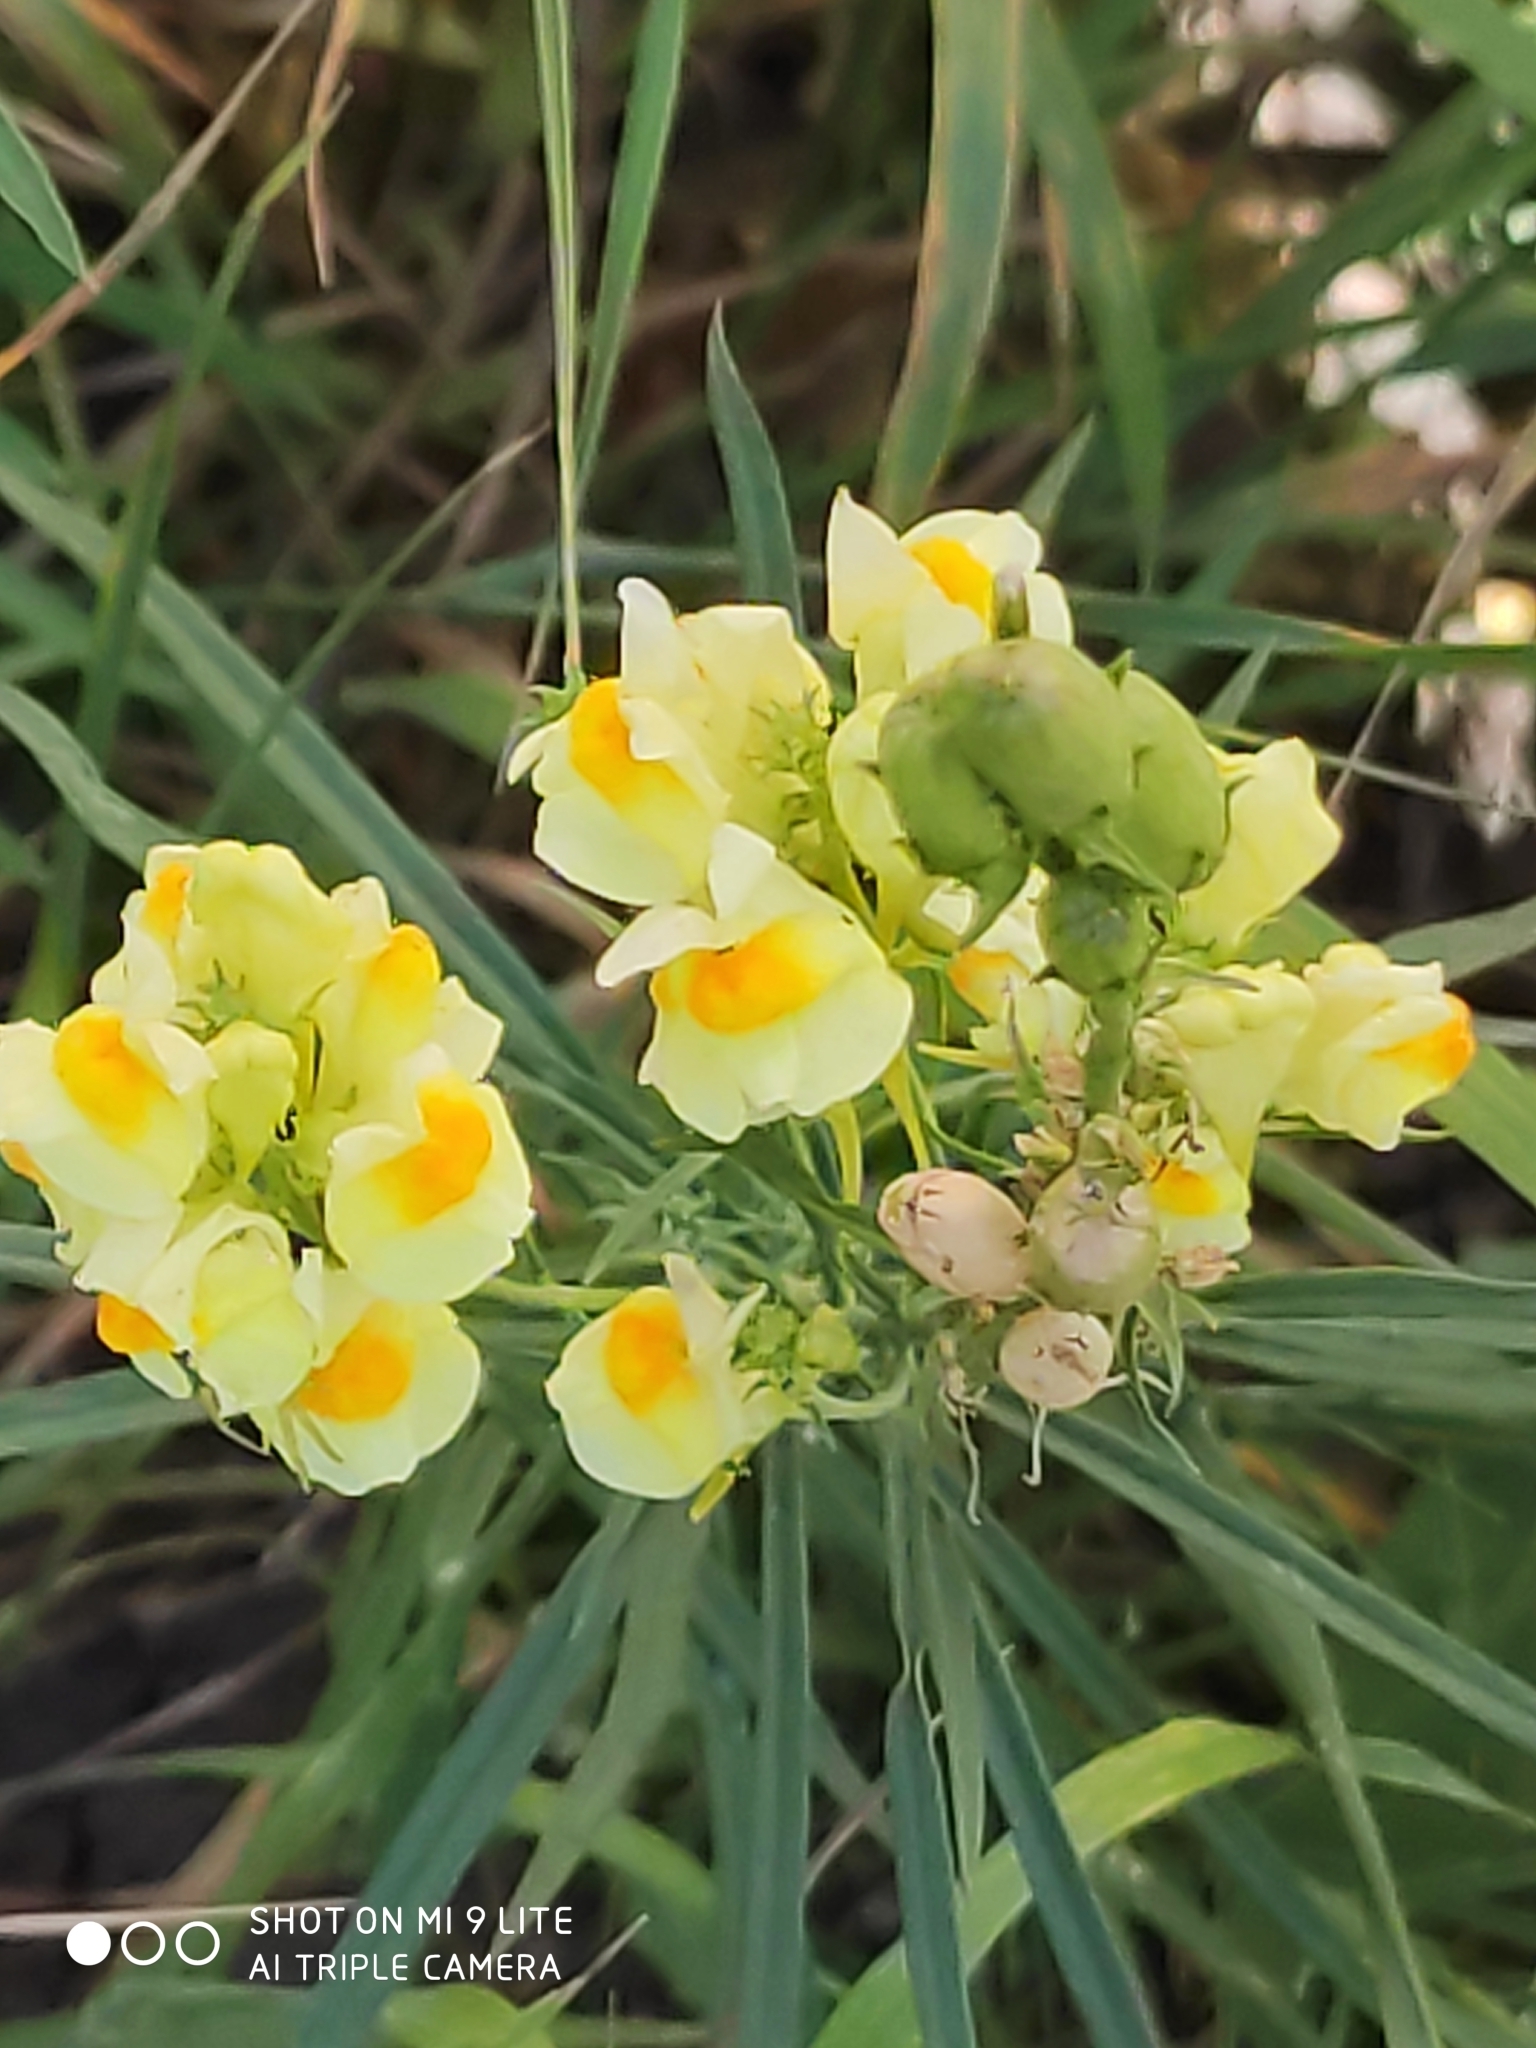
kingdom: Plantae
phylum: Tracheophyta
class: Magnoliopsida
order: Lamiales
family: Plantaginaceae
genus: Linaria
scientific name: Linaria vulgaris
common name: Butter and eggs
